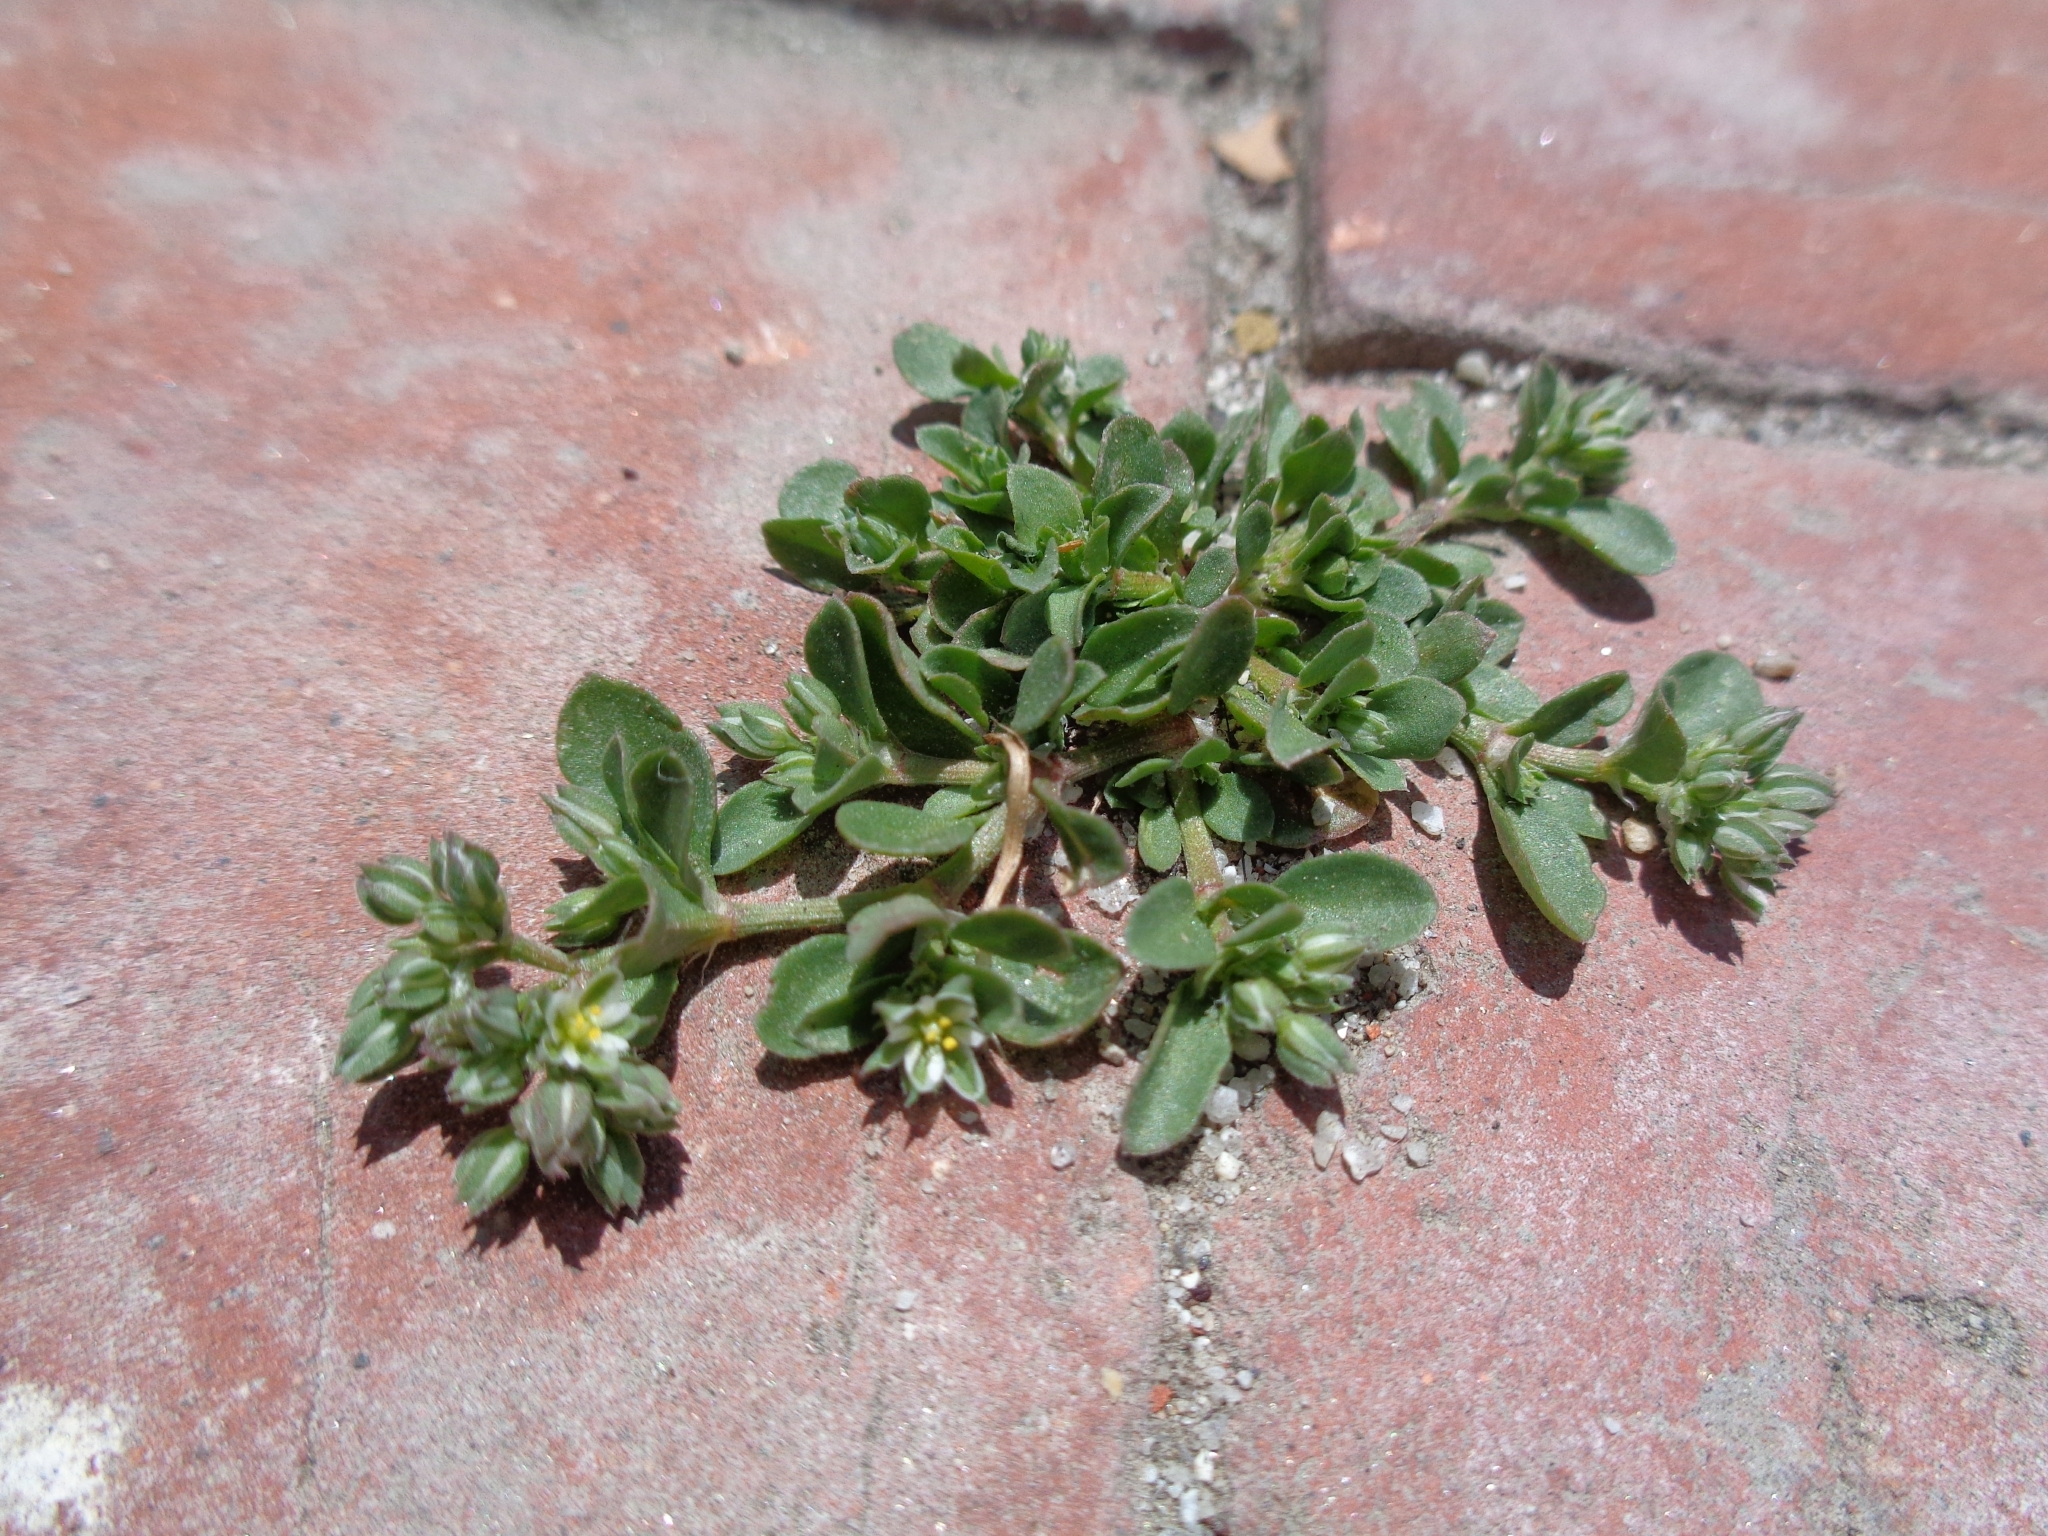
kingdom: Plantae
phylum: Tracheophyta
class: Magnoliopsida
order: Caryophyllales
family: Caryophyllaceae
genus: Polycarpon
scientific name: Polycarpon tetraphyllum
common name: Four-leaved all-seed
